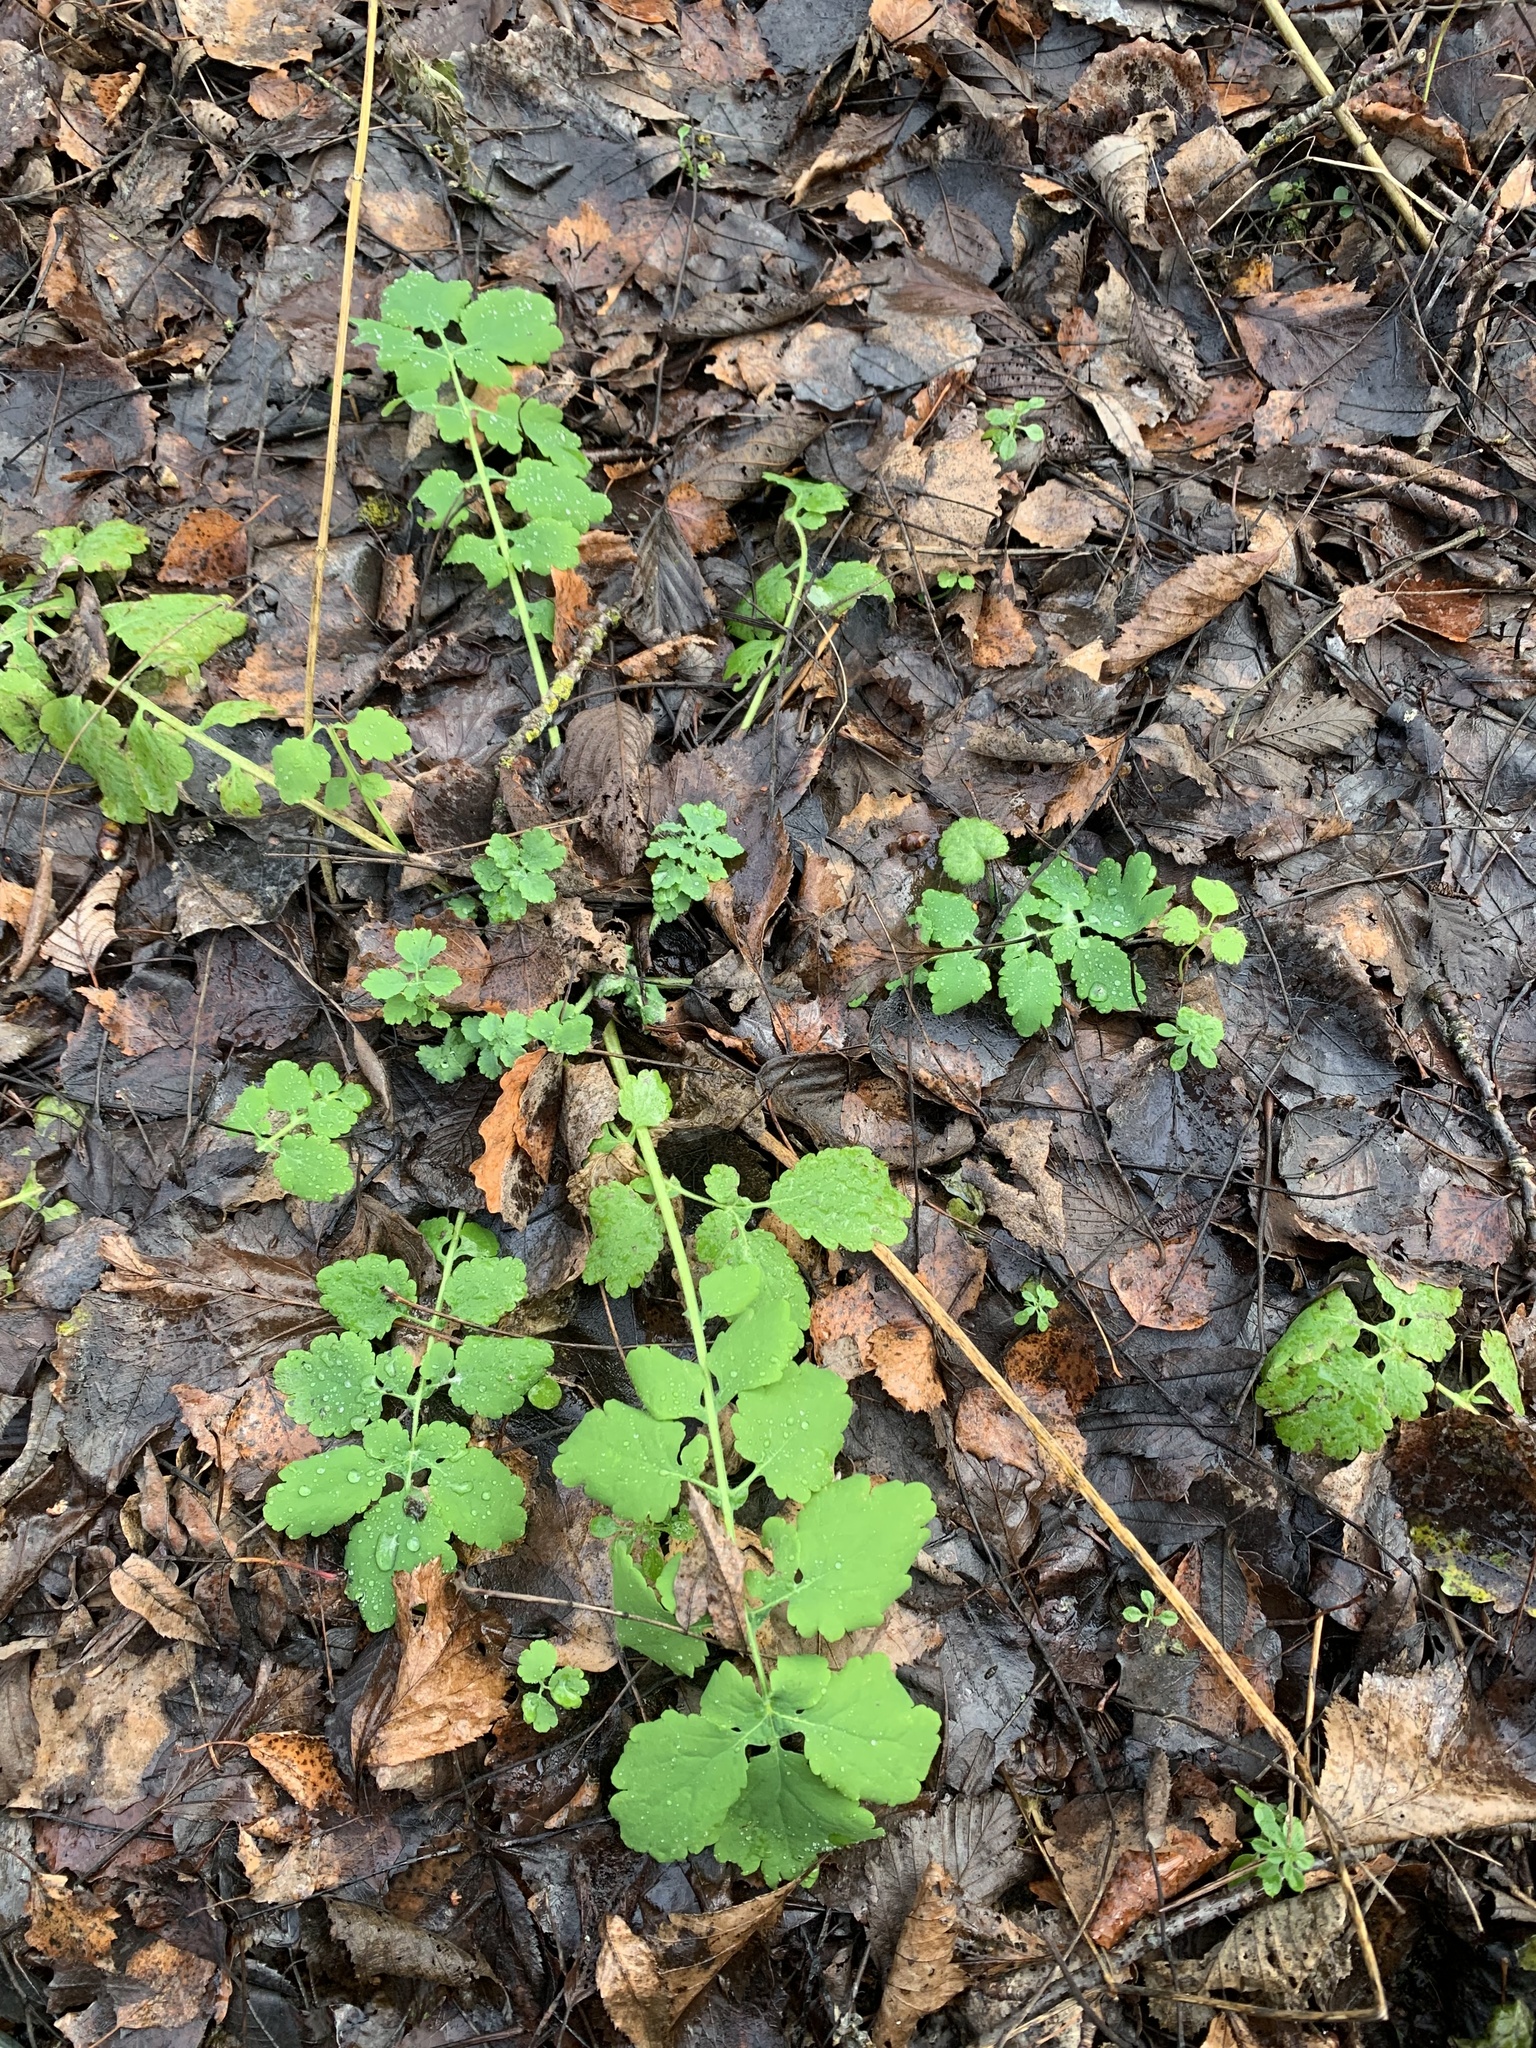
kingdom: Plantae
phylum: Tracheophyta
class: Magnoliopsida
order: Ranunculales
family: Papaveraceae
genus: Chelidonium
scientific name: Chelidonium majus
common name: Greater celandine
